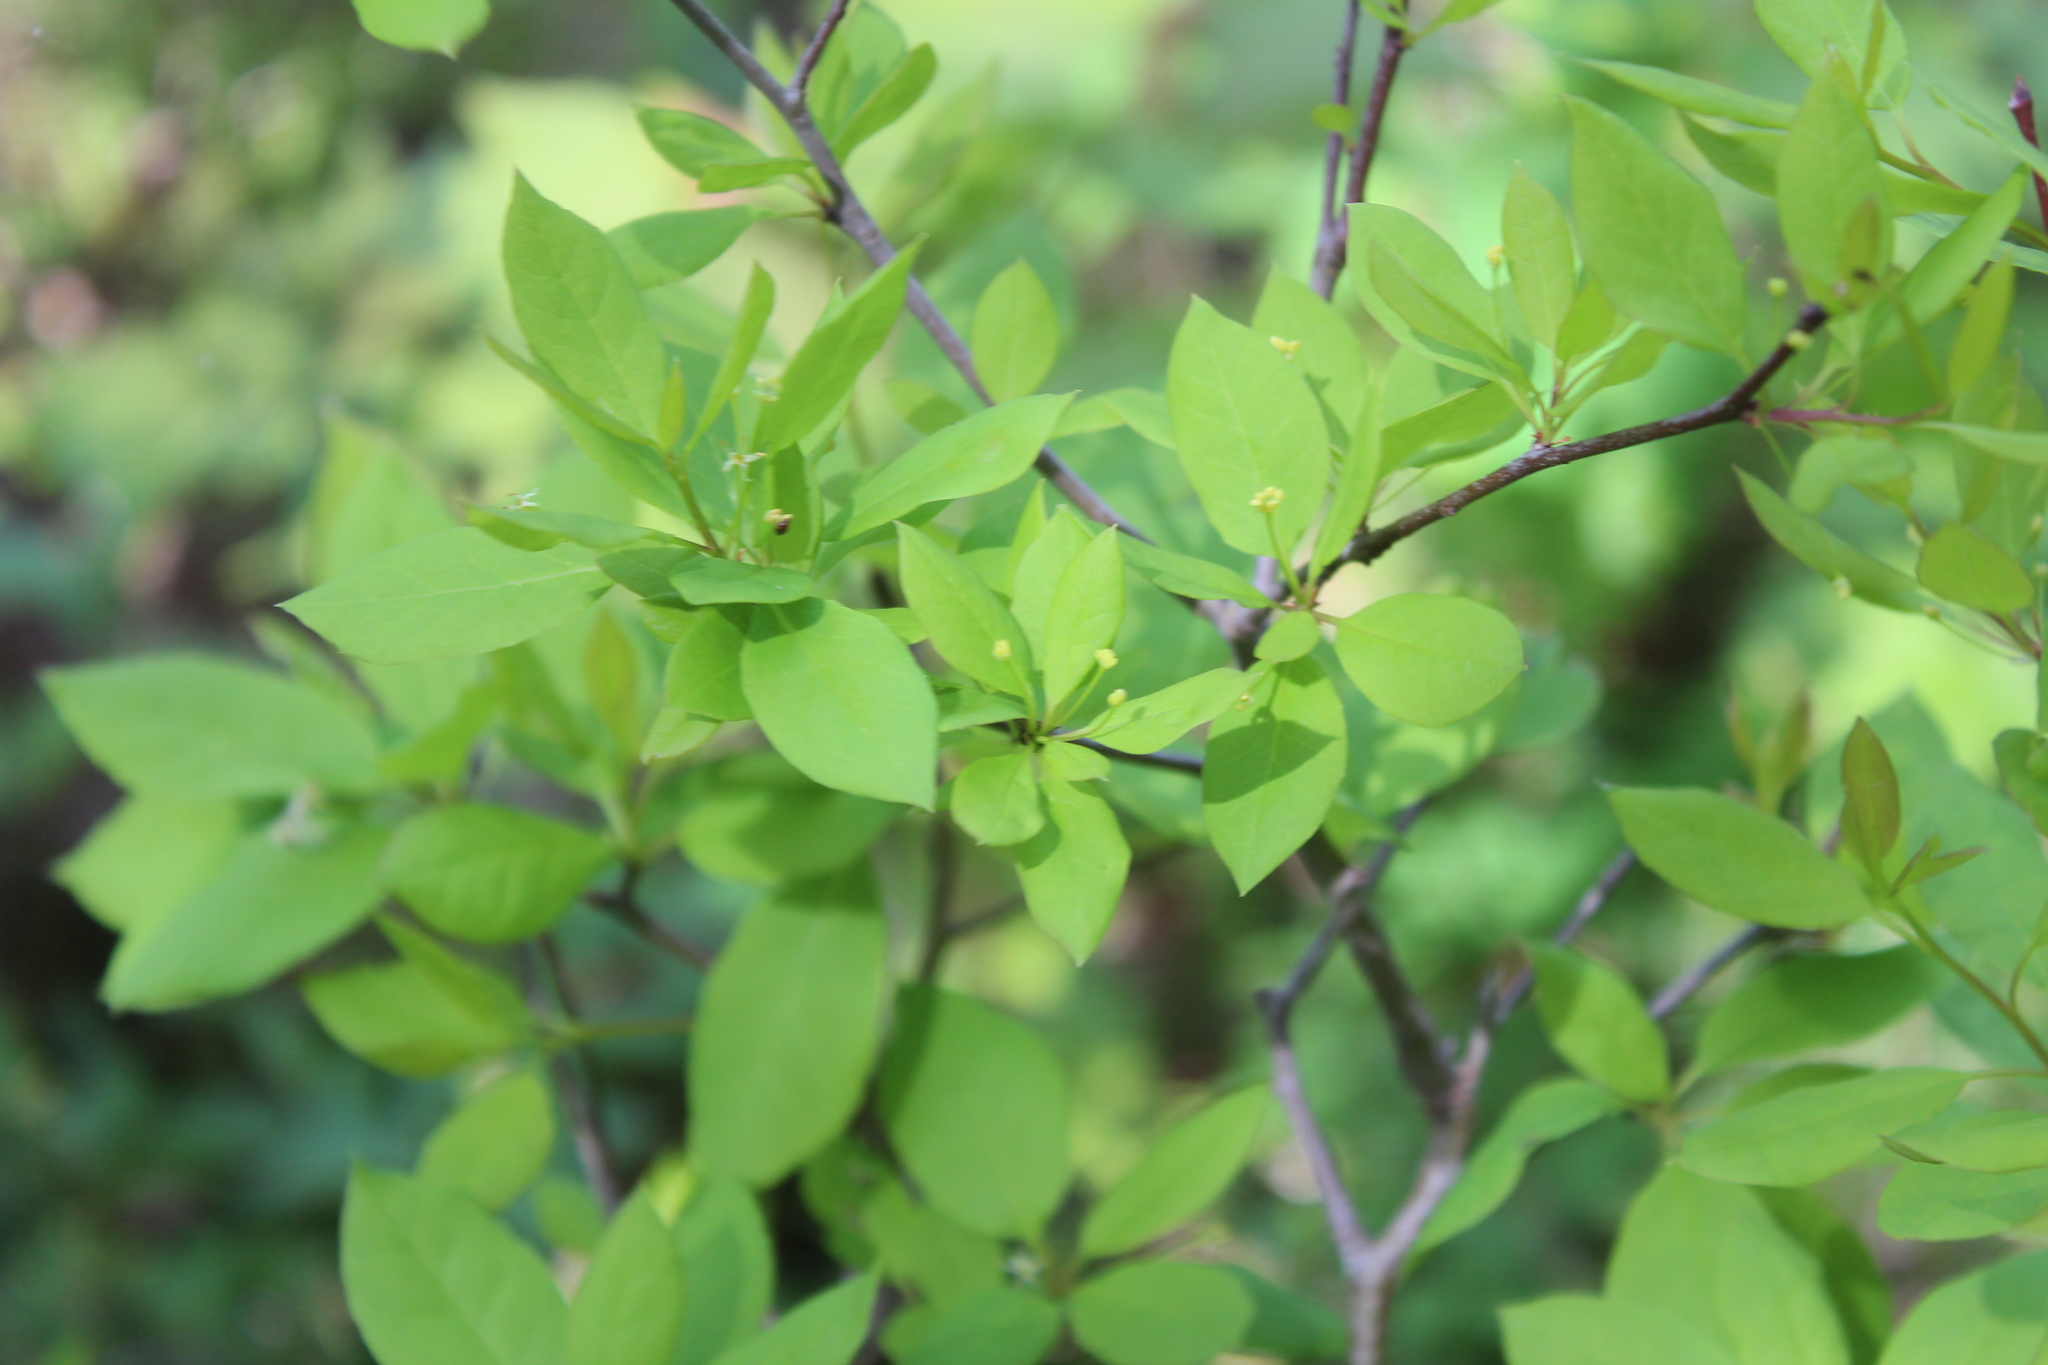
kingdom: Plantae
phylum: Tracheophyta
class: Magnoliopsida
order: Aquifoliales
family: Aquifoliaceae
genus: Ilex
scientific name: Ilex mucronata
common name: Catberry
